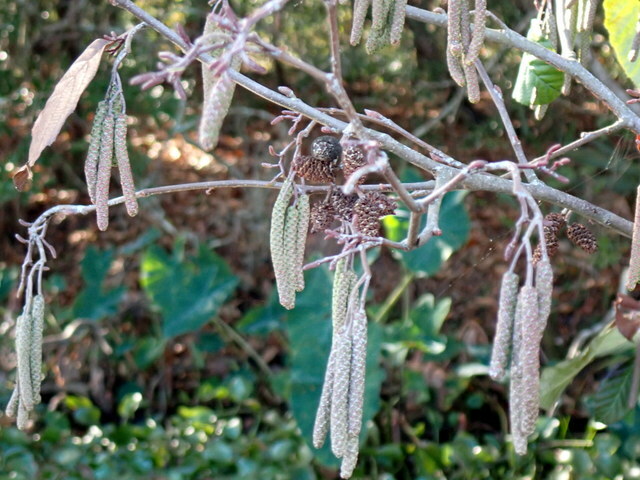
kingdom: Plantae
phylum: Tracheophyta
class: Magnoliopsida
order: Fagales
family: Betulaceae
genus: Alnus
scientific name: Alnus serrulata
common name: Hazel alder
